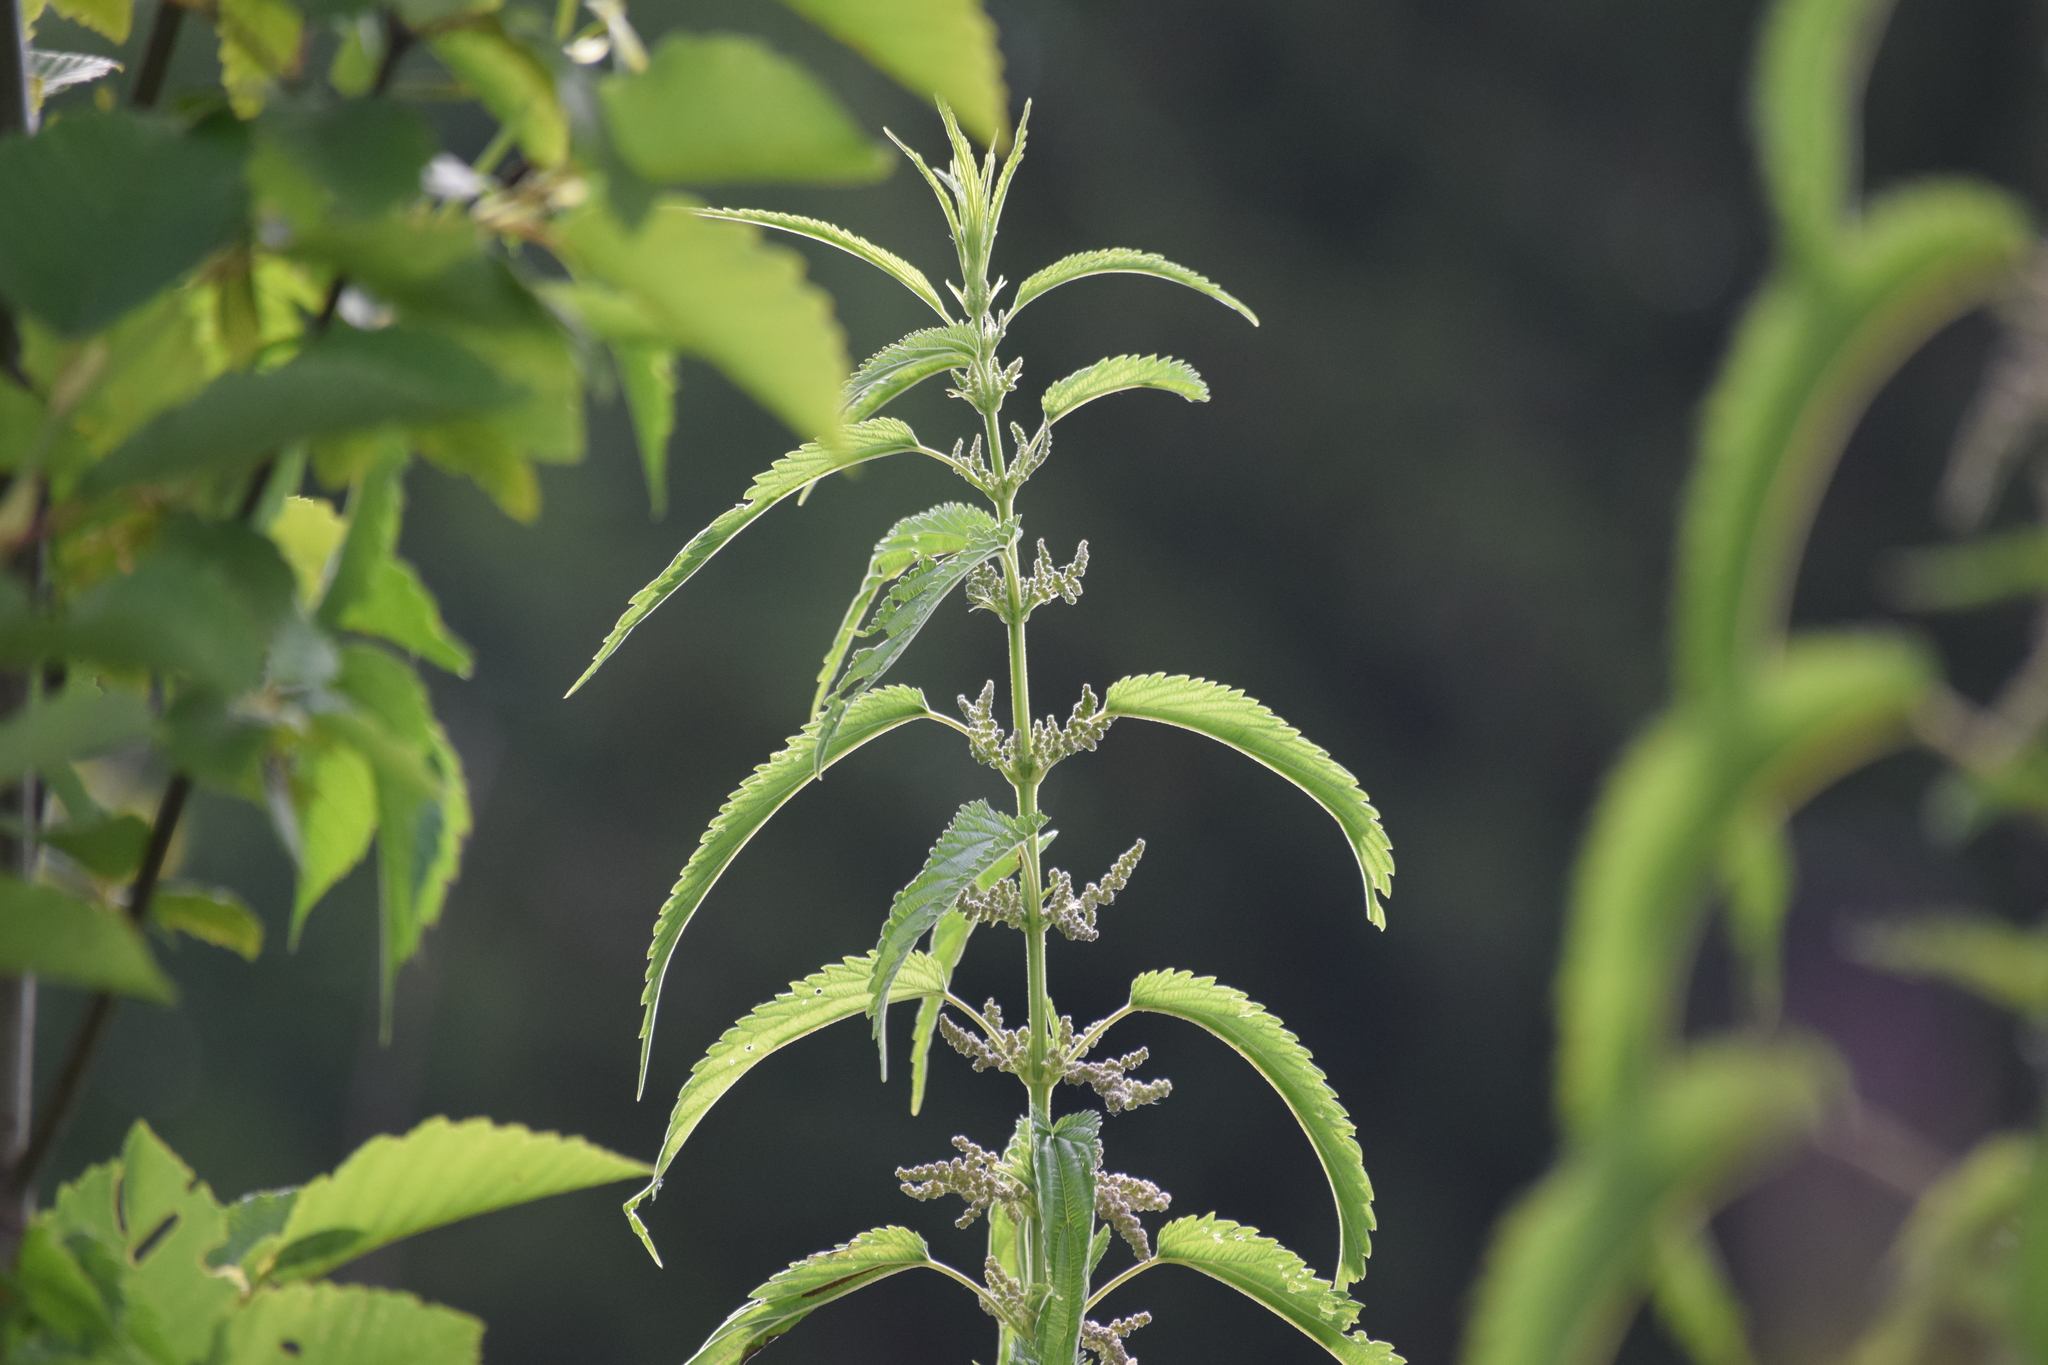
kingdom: Plantae
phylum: Tracheophyta
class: Magnoliopsida
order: Rosales
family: Urticaceae
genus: Urtica
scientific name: Urtica dioica
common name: Common nettle
